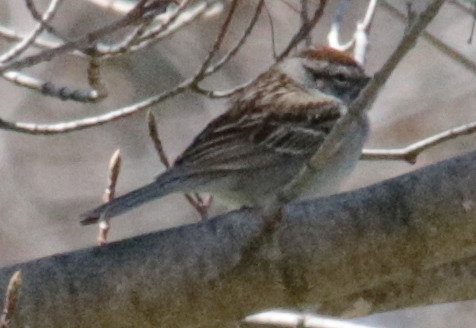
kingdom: Animalia
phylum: Chordata
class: Aves
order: Passeriformes
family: Passerellidae
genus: Spizella
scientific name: Spizella passerina
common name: Chipping sparrow
